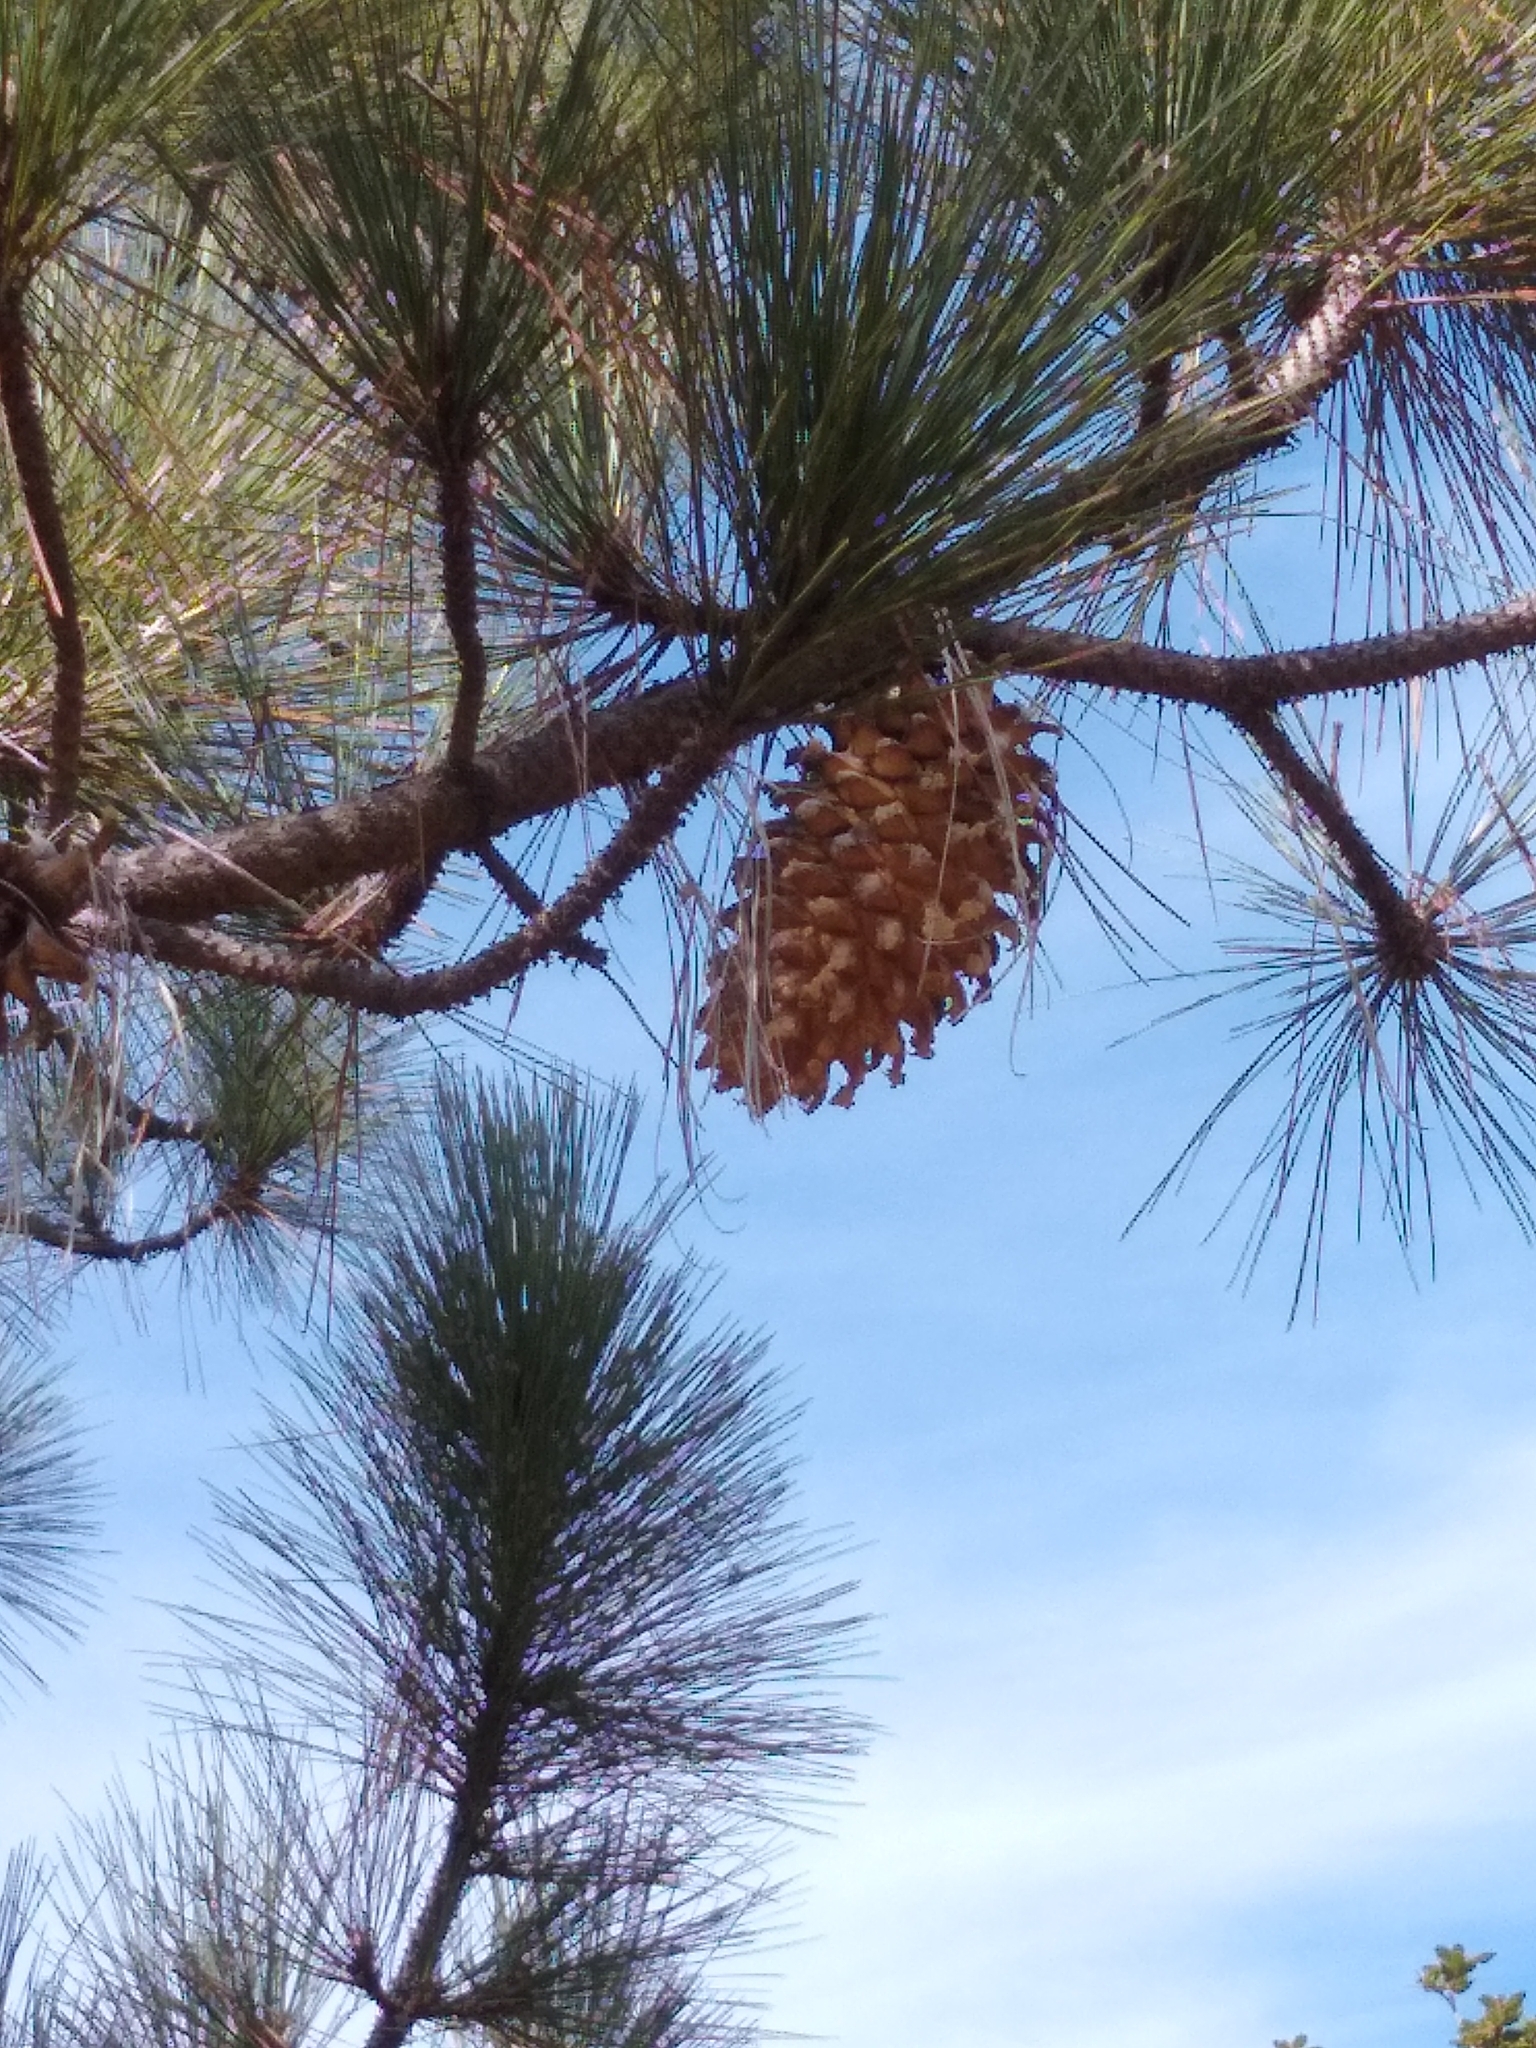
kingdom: Plantae
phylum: Tracheophyta
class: Pinopsida
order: Pinales
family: Pinaceae
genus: Pinus
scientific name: Pinus coulteri
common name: Coulter pine
